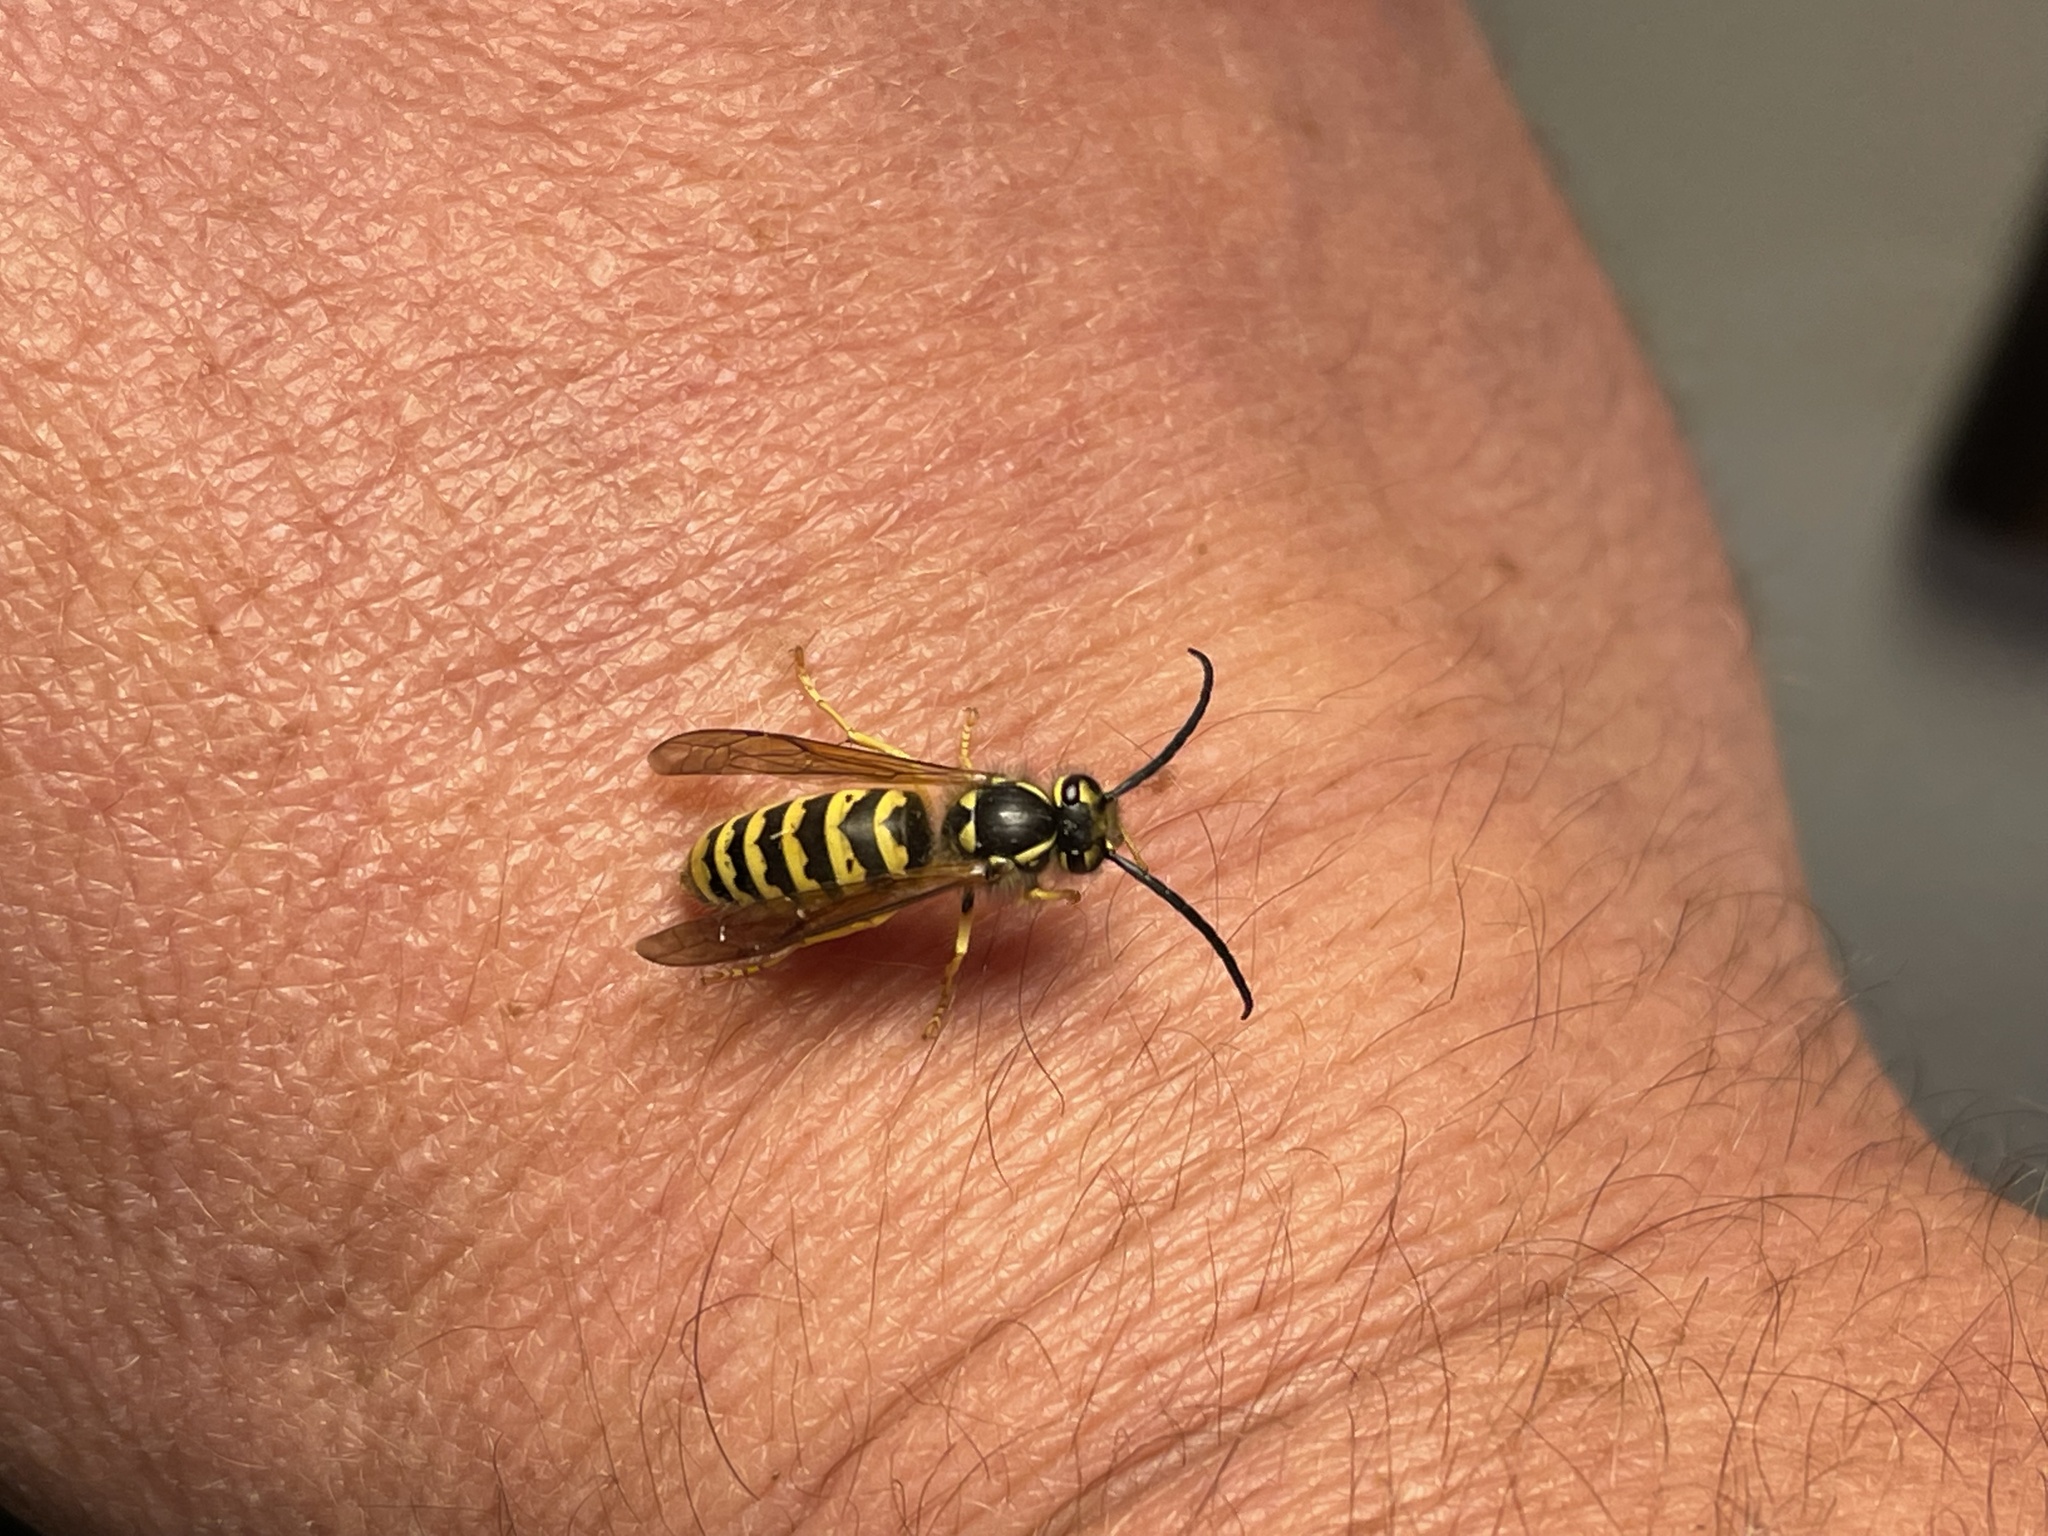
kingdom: Animalia
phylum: Arthropoda
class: Insecta
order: Hymenoptera
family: Vespidae
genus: Vespula
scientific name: Vespula flavopilosa
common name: Downy yellowjacket
